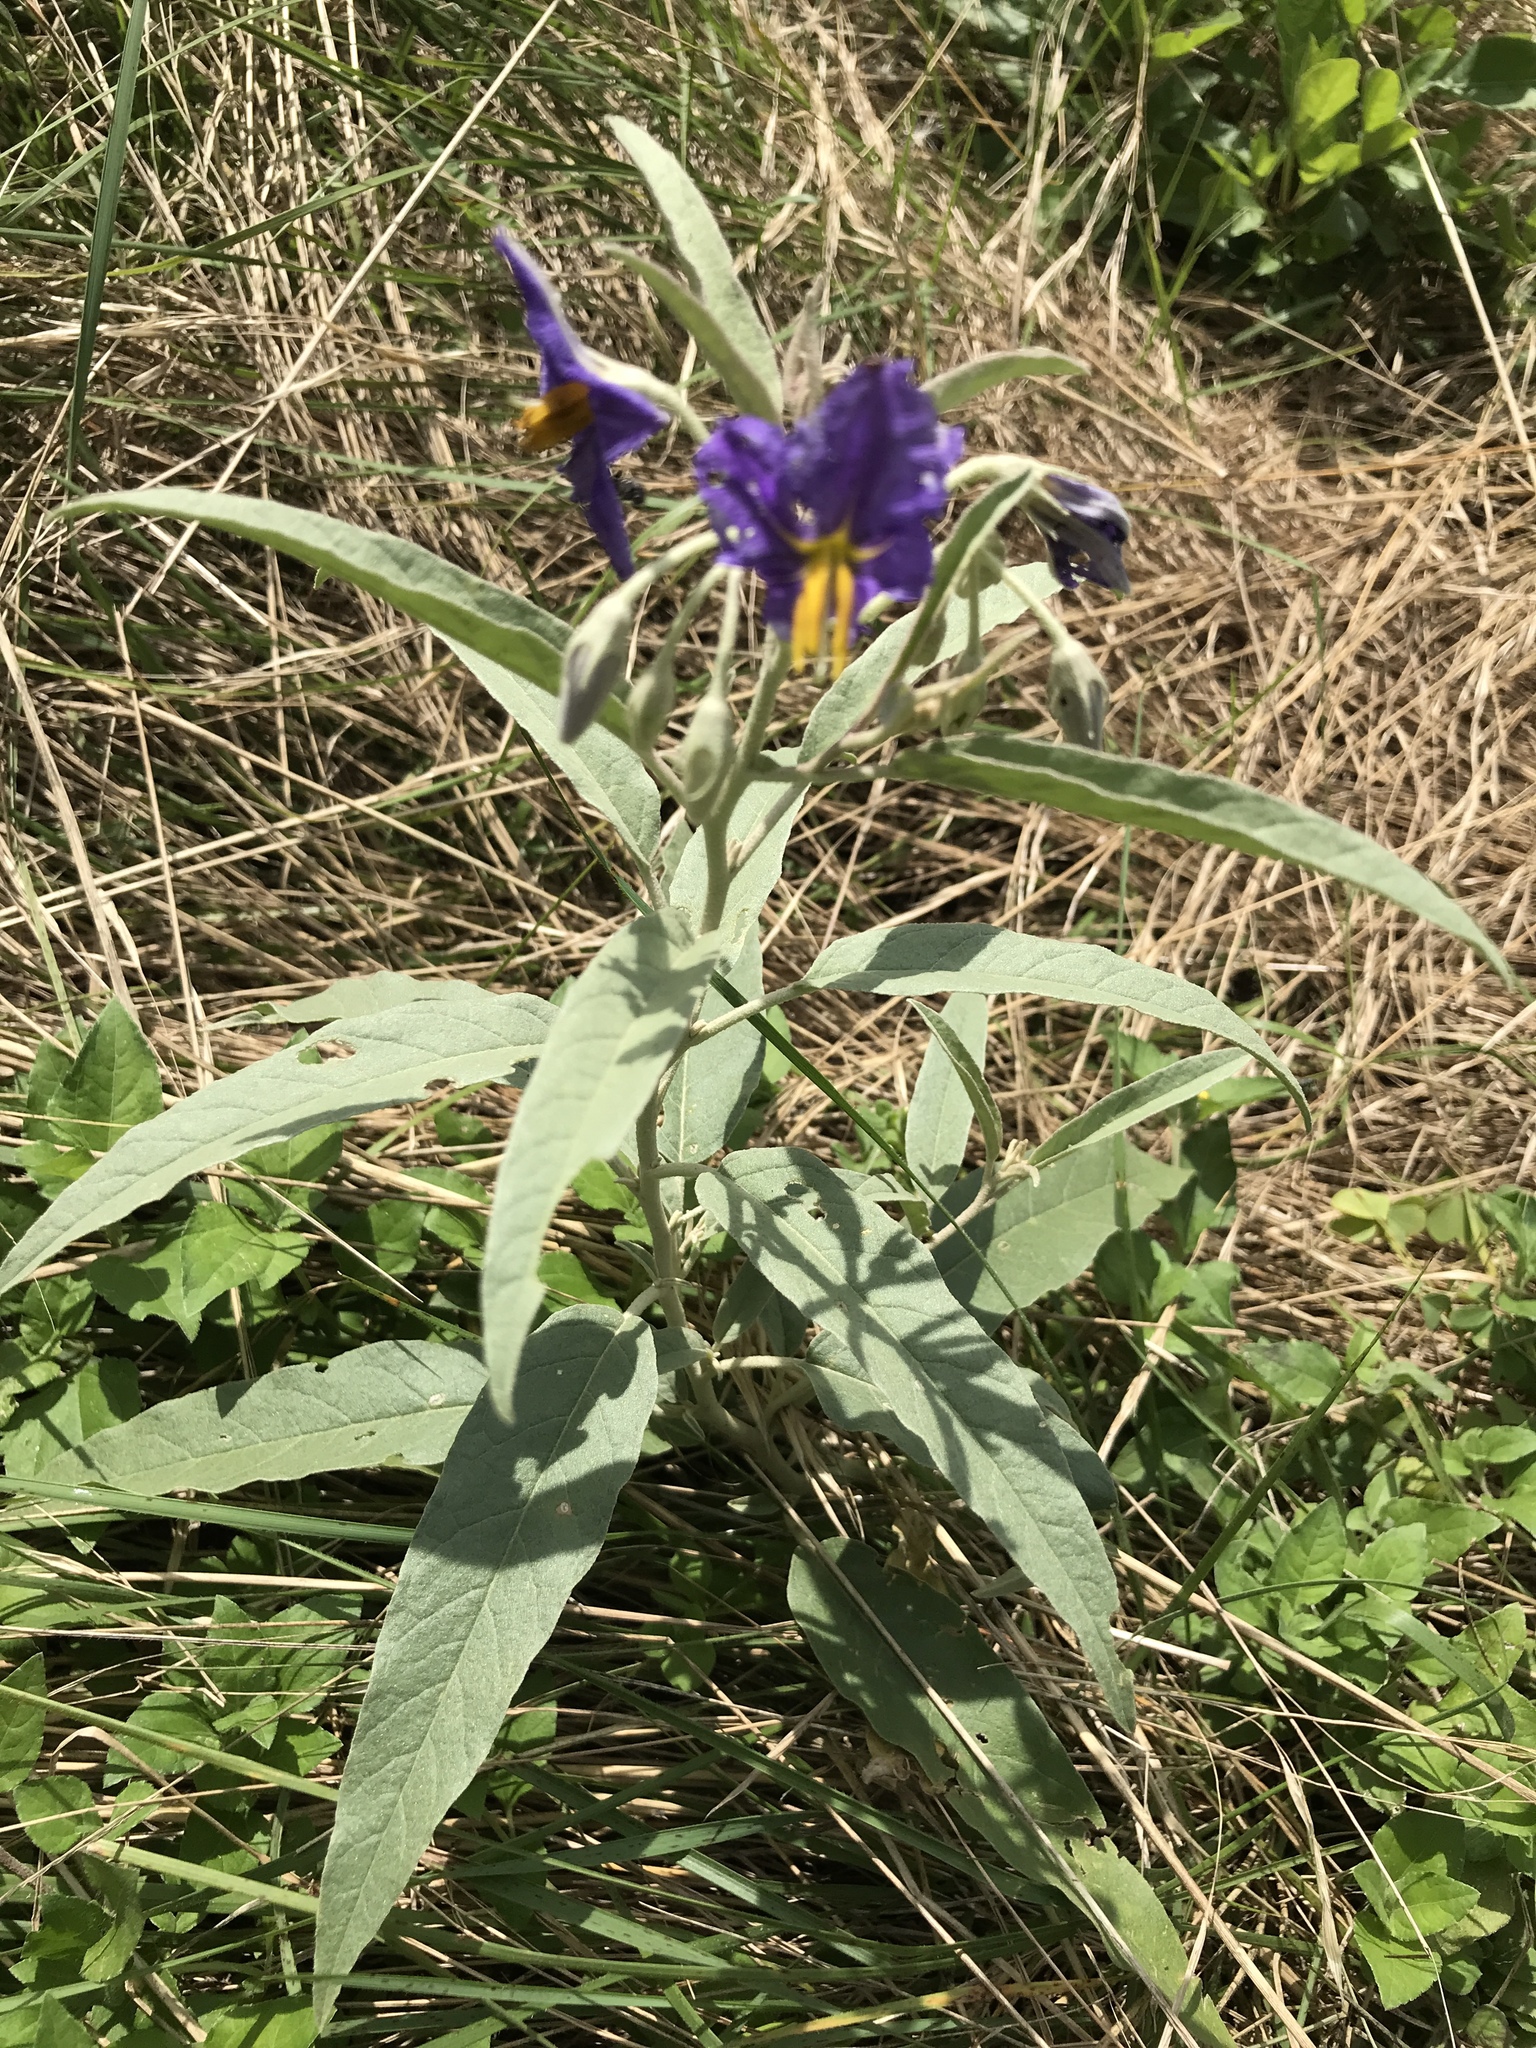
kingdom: Plantae
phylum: Tracheophyta
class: Magnoliopsida
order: Solanales
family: Solanaceae
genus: Solanum
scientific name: Solanum elaeagnifolium
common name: Silverleaf nightshade
